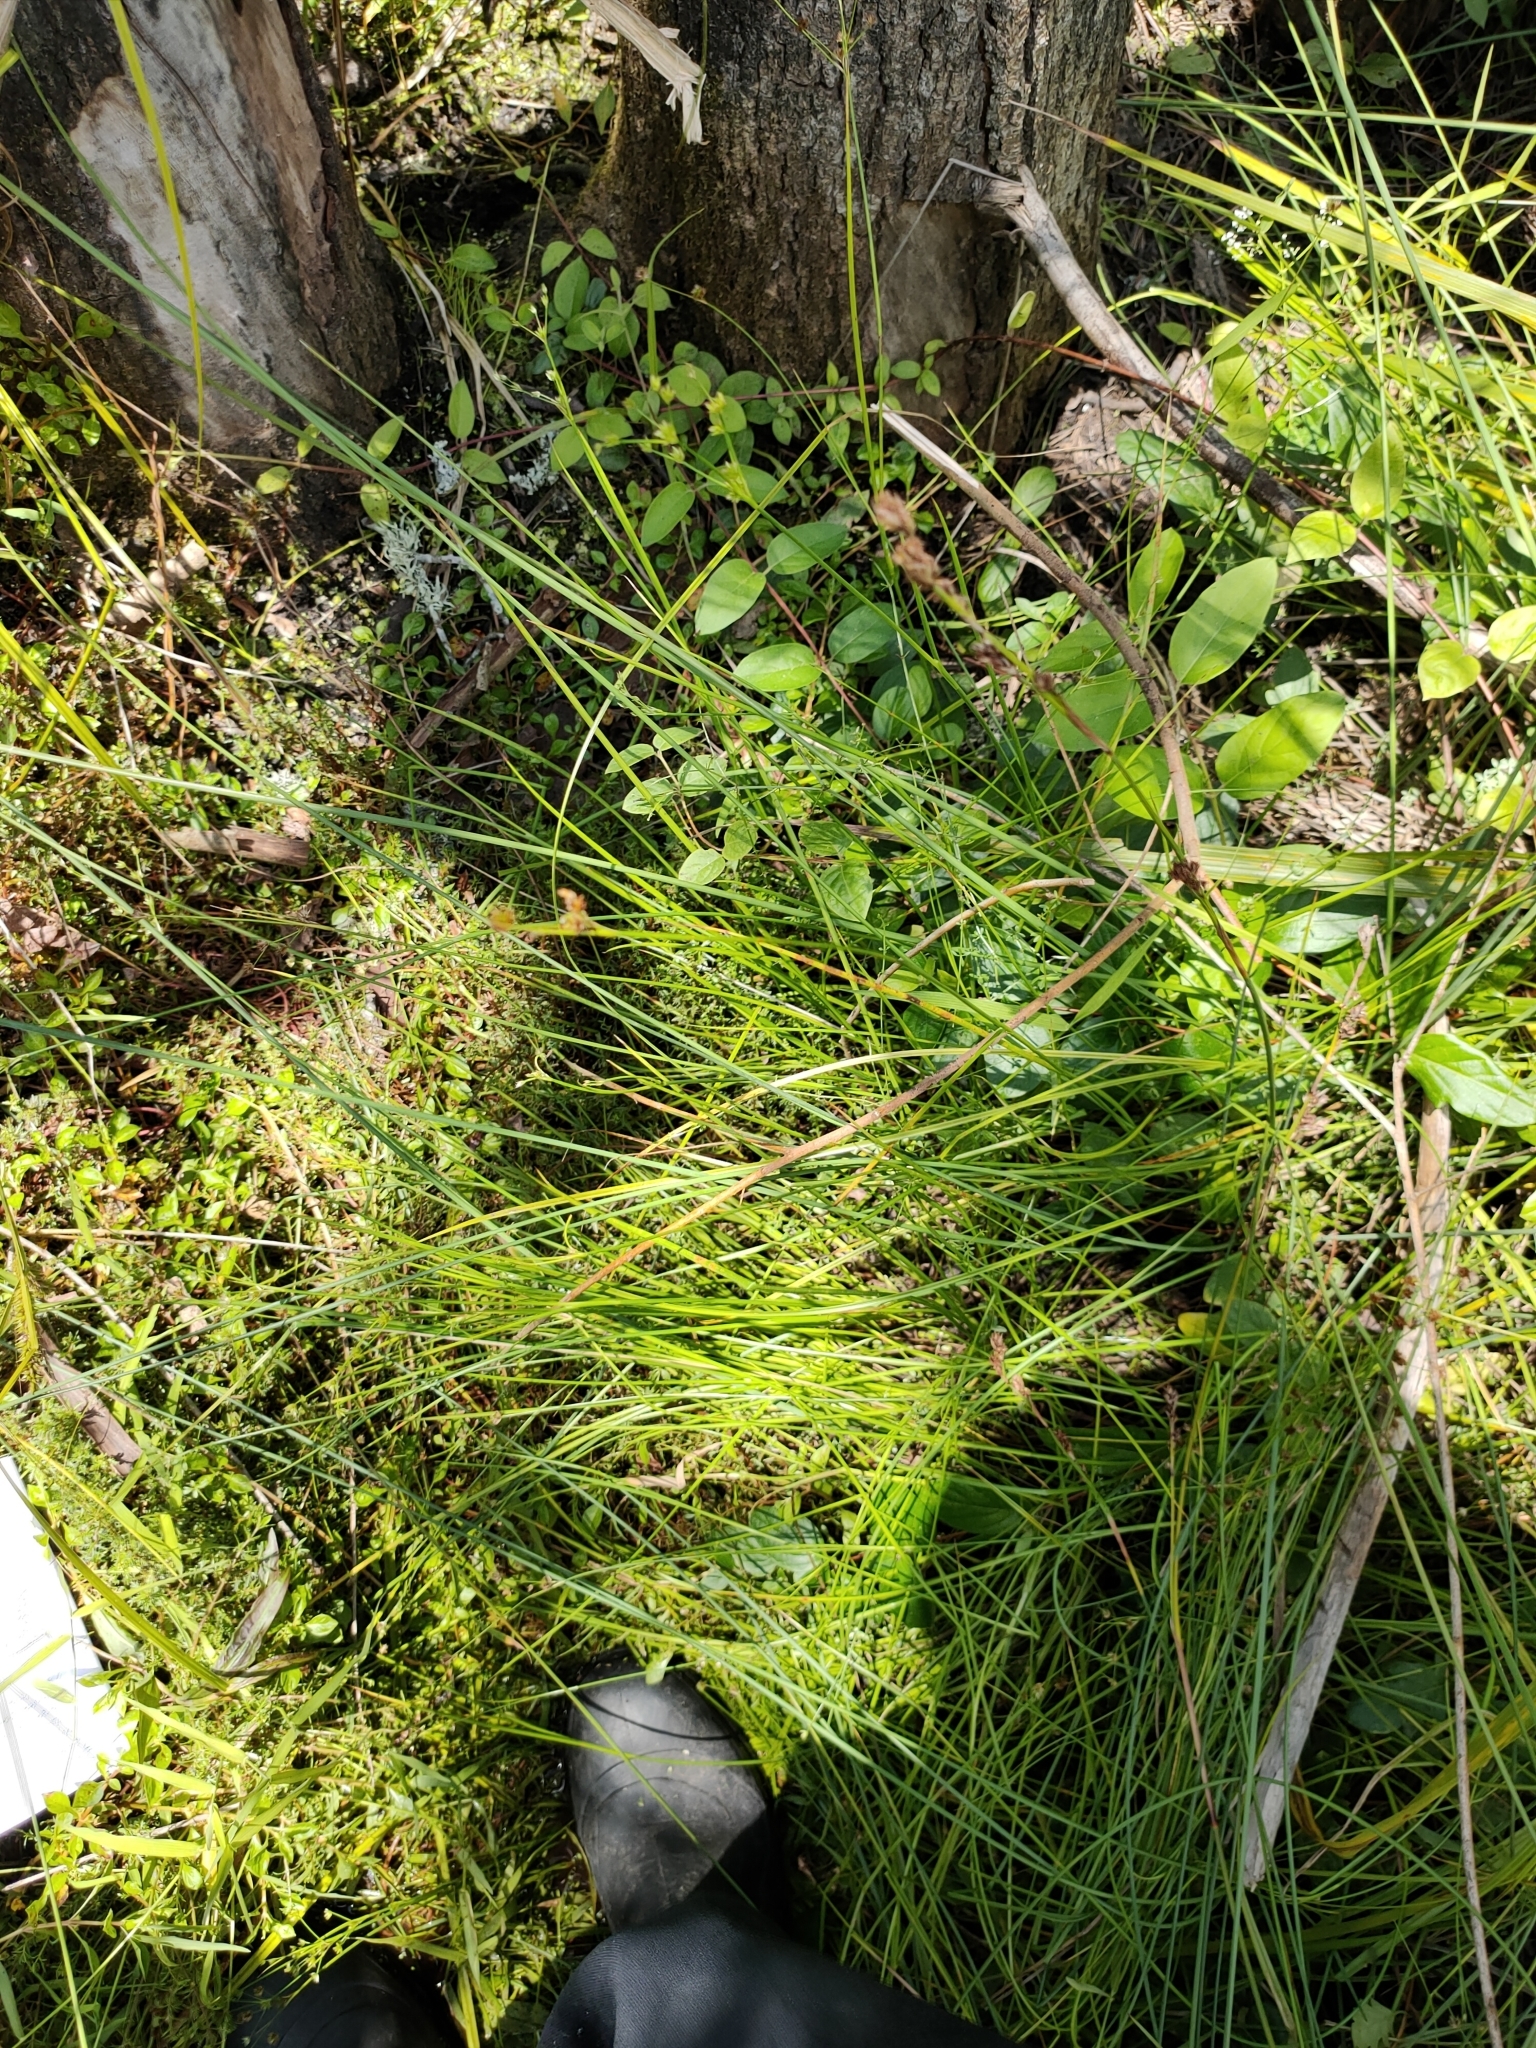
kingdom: Plantae
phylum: Tracheophyta
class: Liliopsida
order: Poales
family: Juncaceae
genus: Juncus
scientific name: Juncus articulatus
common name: Jointed rush
